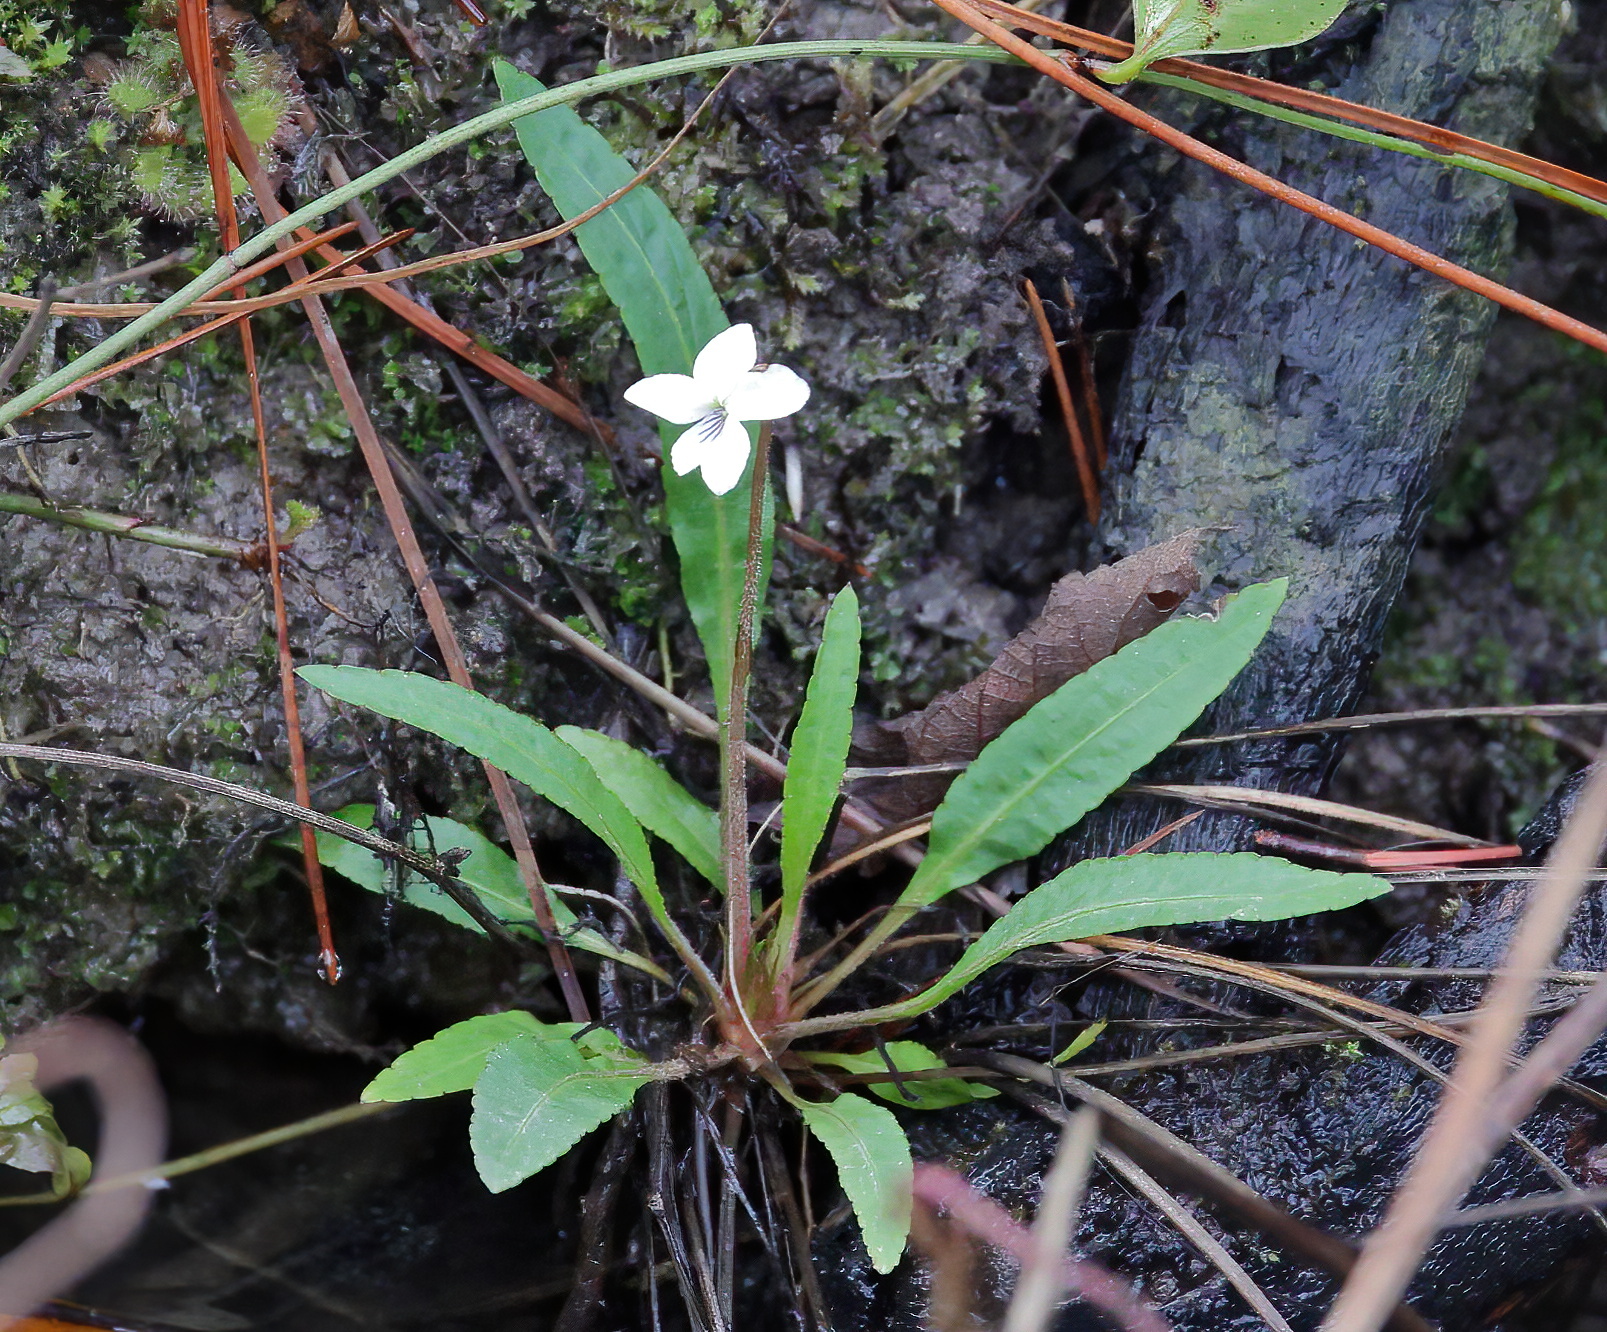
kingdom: Plantae
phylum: Tracheophyta
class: Magnoliopsida
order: Malpighiales
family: Violaceae
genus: Viola
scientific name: Viola lanceolata
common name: Bog white violet
